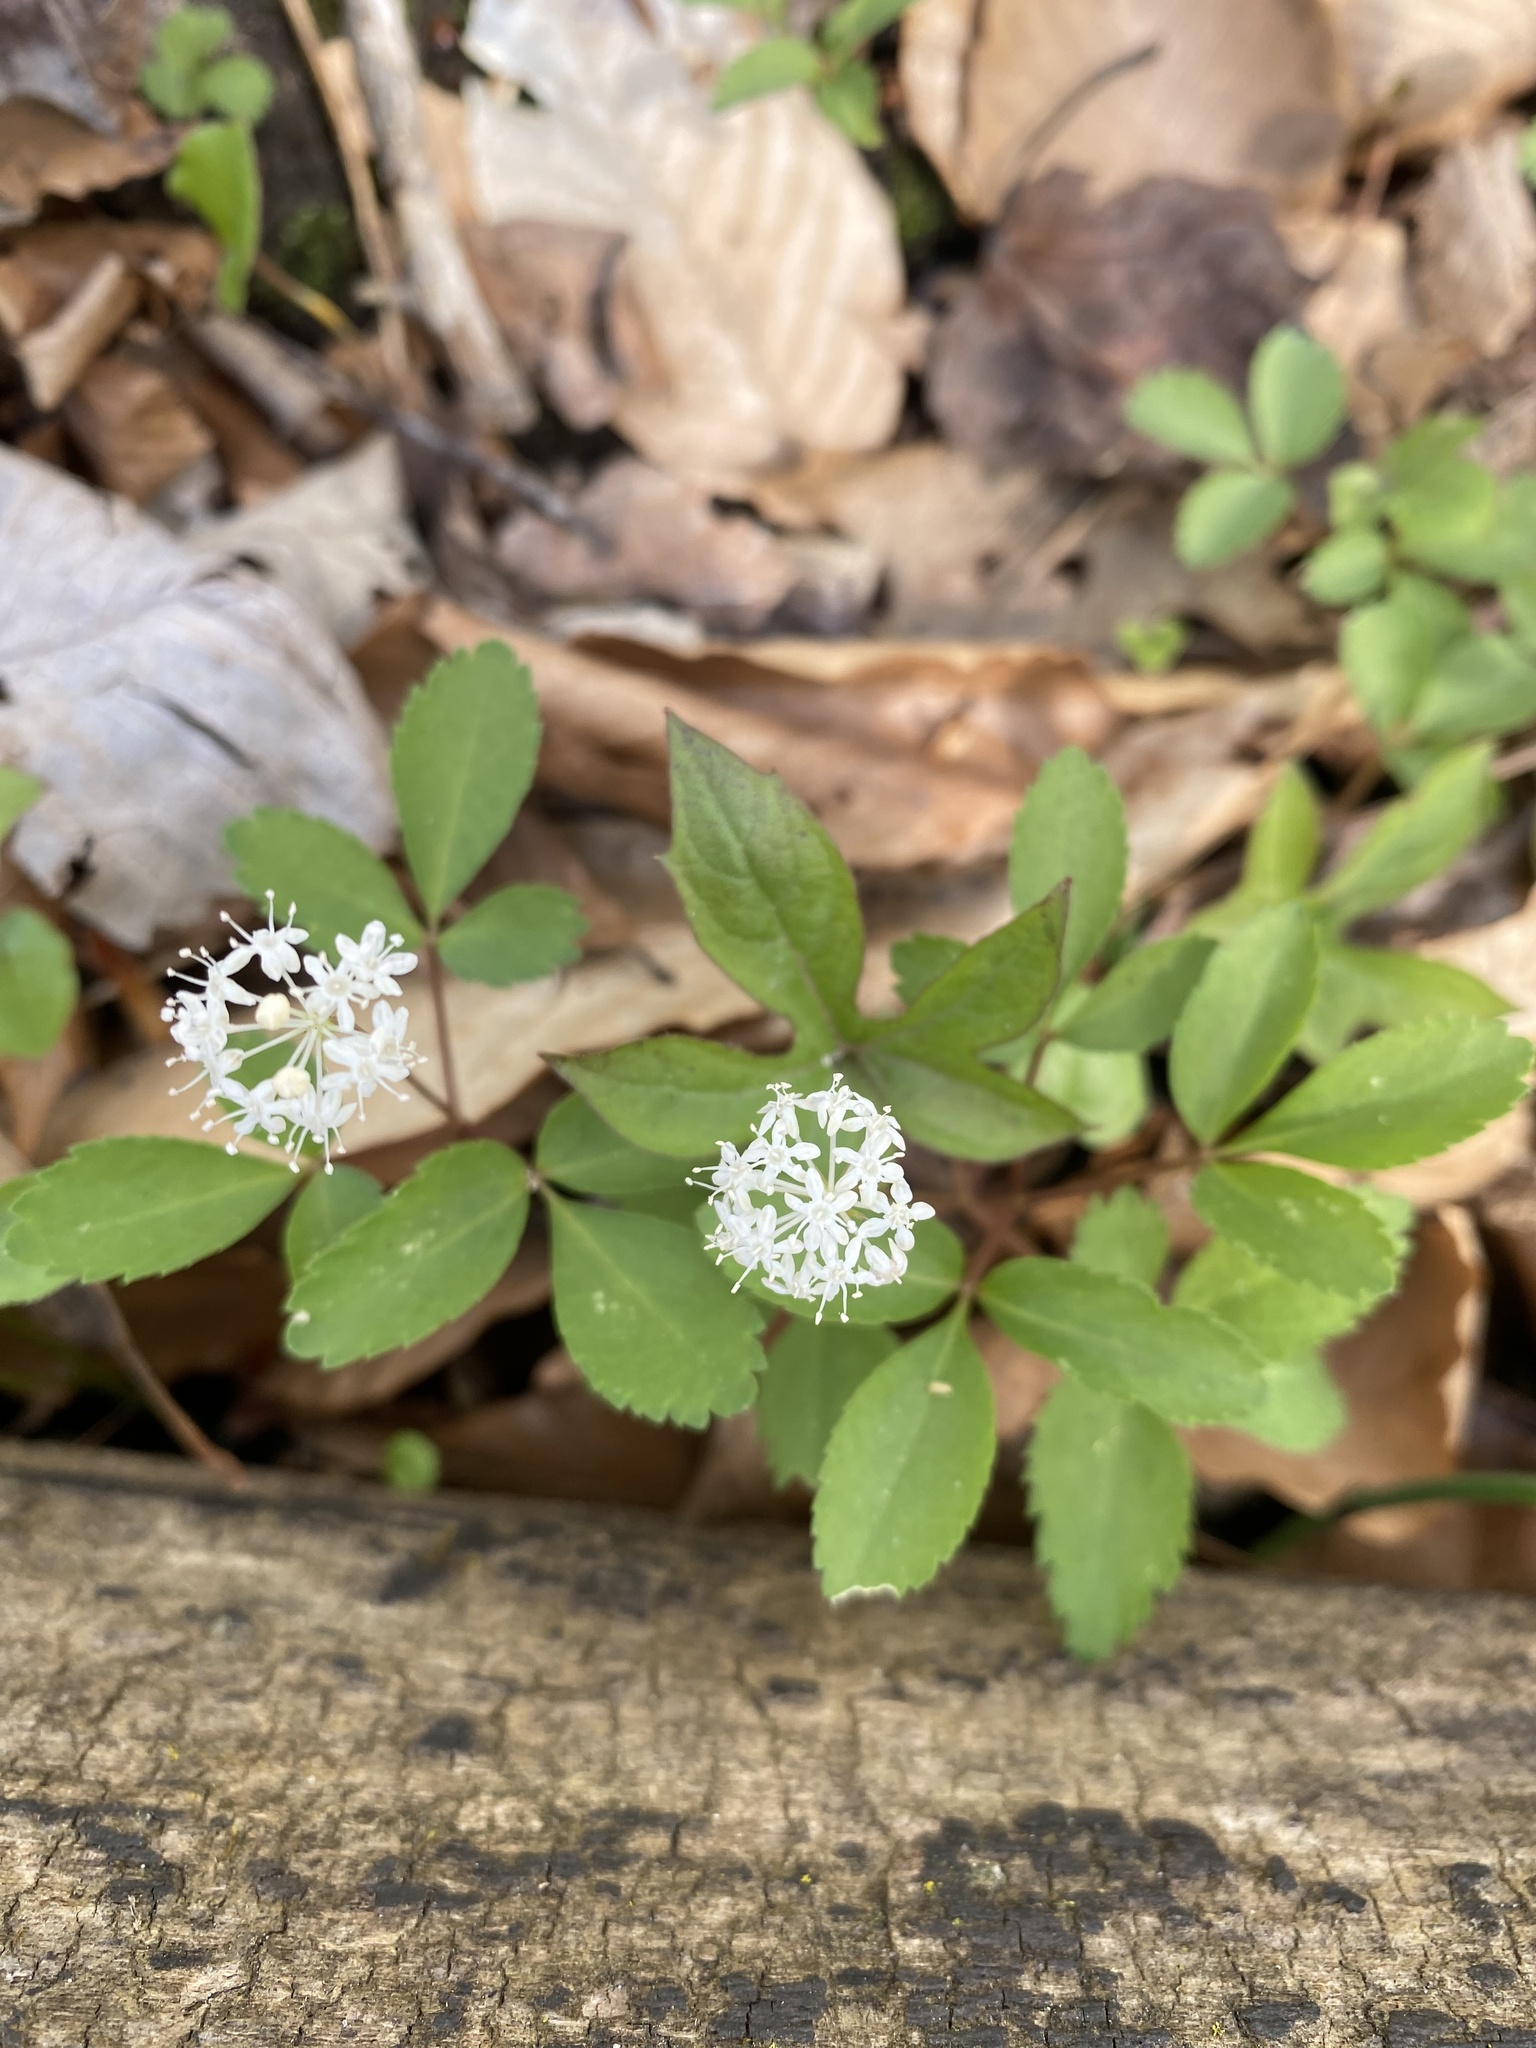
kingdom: Plantae
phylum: Tracheophyta
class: Magnoliopsida
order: Apiales
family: Araliaceae
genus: Panax
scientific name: Panax trifolius
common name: Dwarf ginseng
